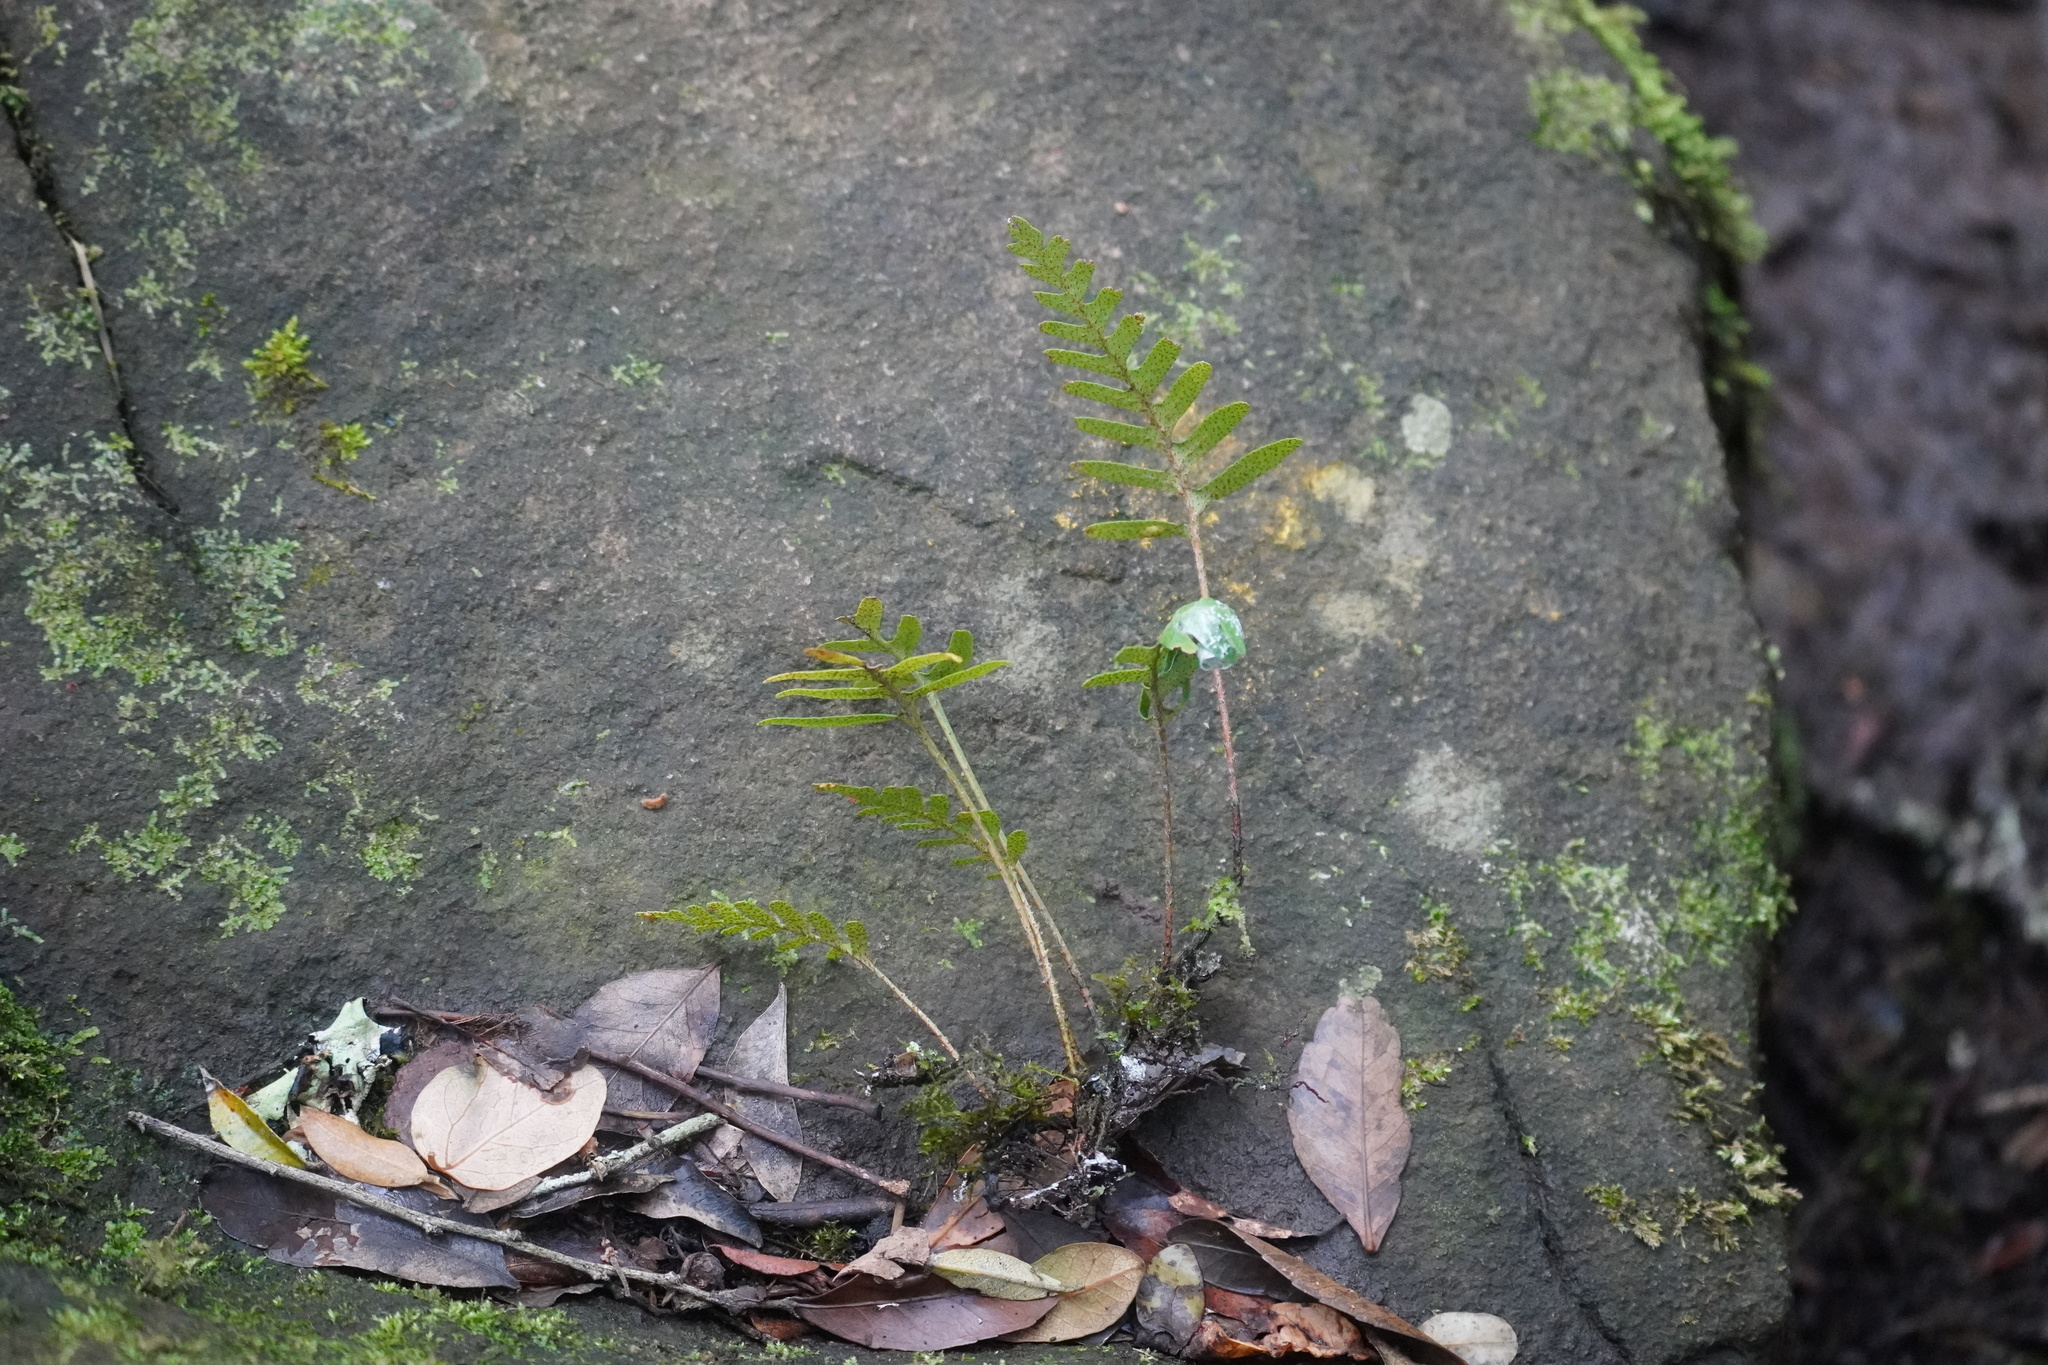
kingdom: Plantae
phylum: Tracheophyta
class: Polypodiopsida
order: Polypodiales
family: Polypodiaceae
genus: Pleopeltis
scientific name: Pleopeltis ecklonii
